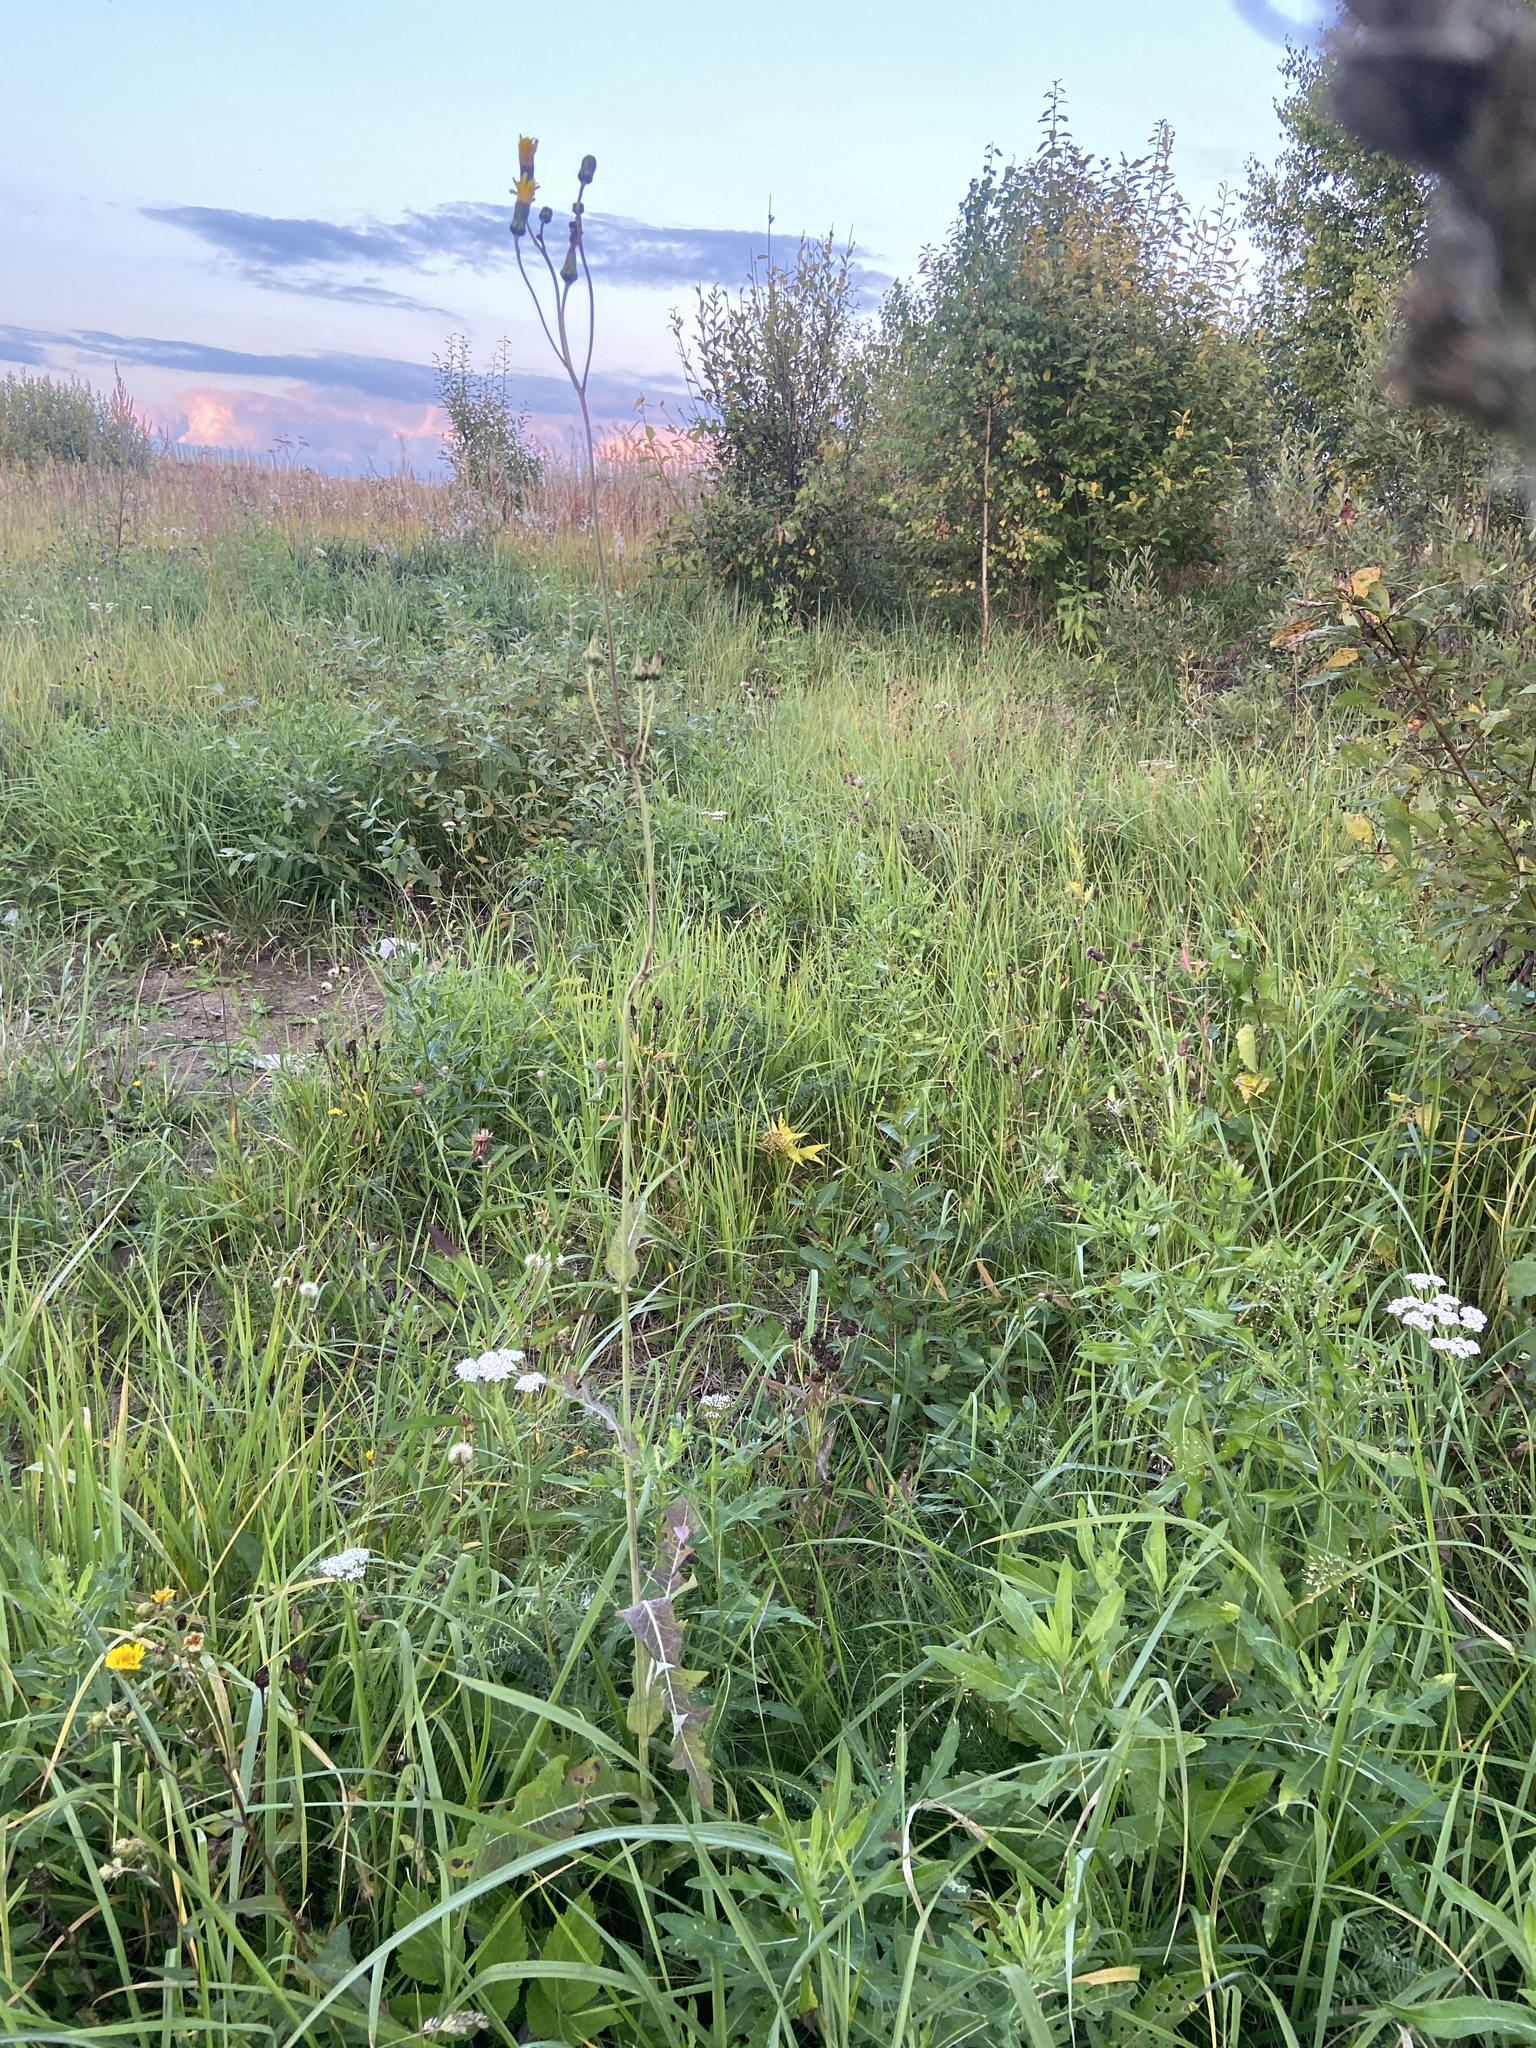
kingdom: Plantae
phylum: Tracheophyta
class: Magnoliopsida
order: Asterales
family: Asteraceae
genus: Sonchus
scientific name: Sonchus arvensis
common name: Perennial sow-thistle
